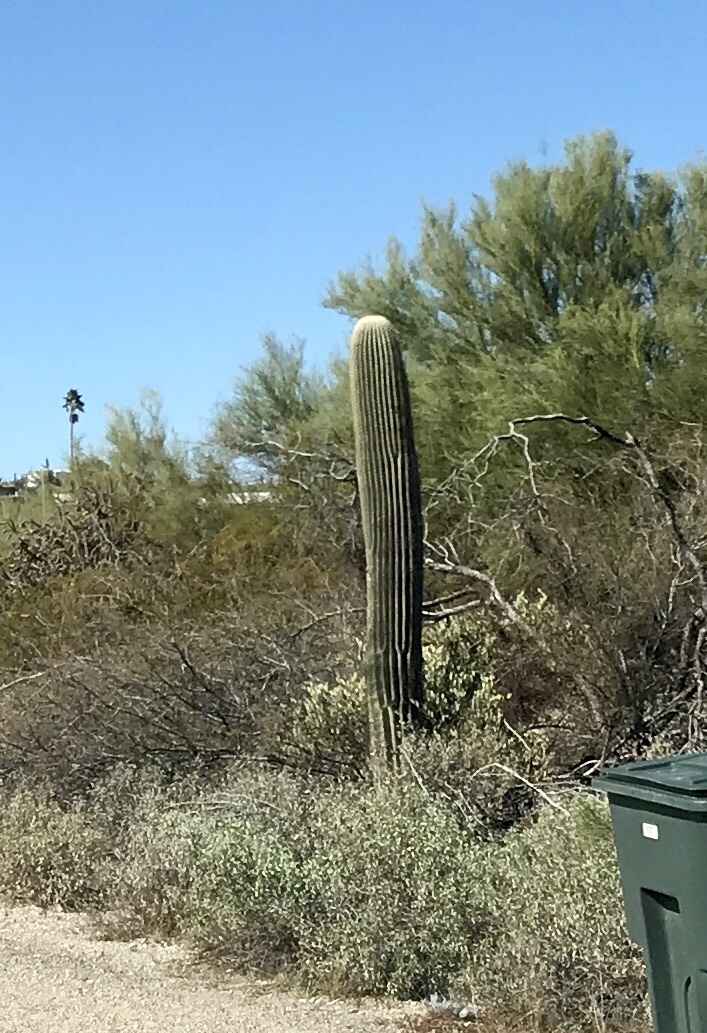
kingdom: Plantae
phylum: Tracheophyta
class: Magnoliopsida
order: Caryophyllales
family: Cactaceae
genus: Carnegiea
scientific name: Carnegiea gigantea
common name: Saguaro
